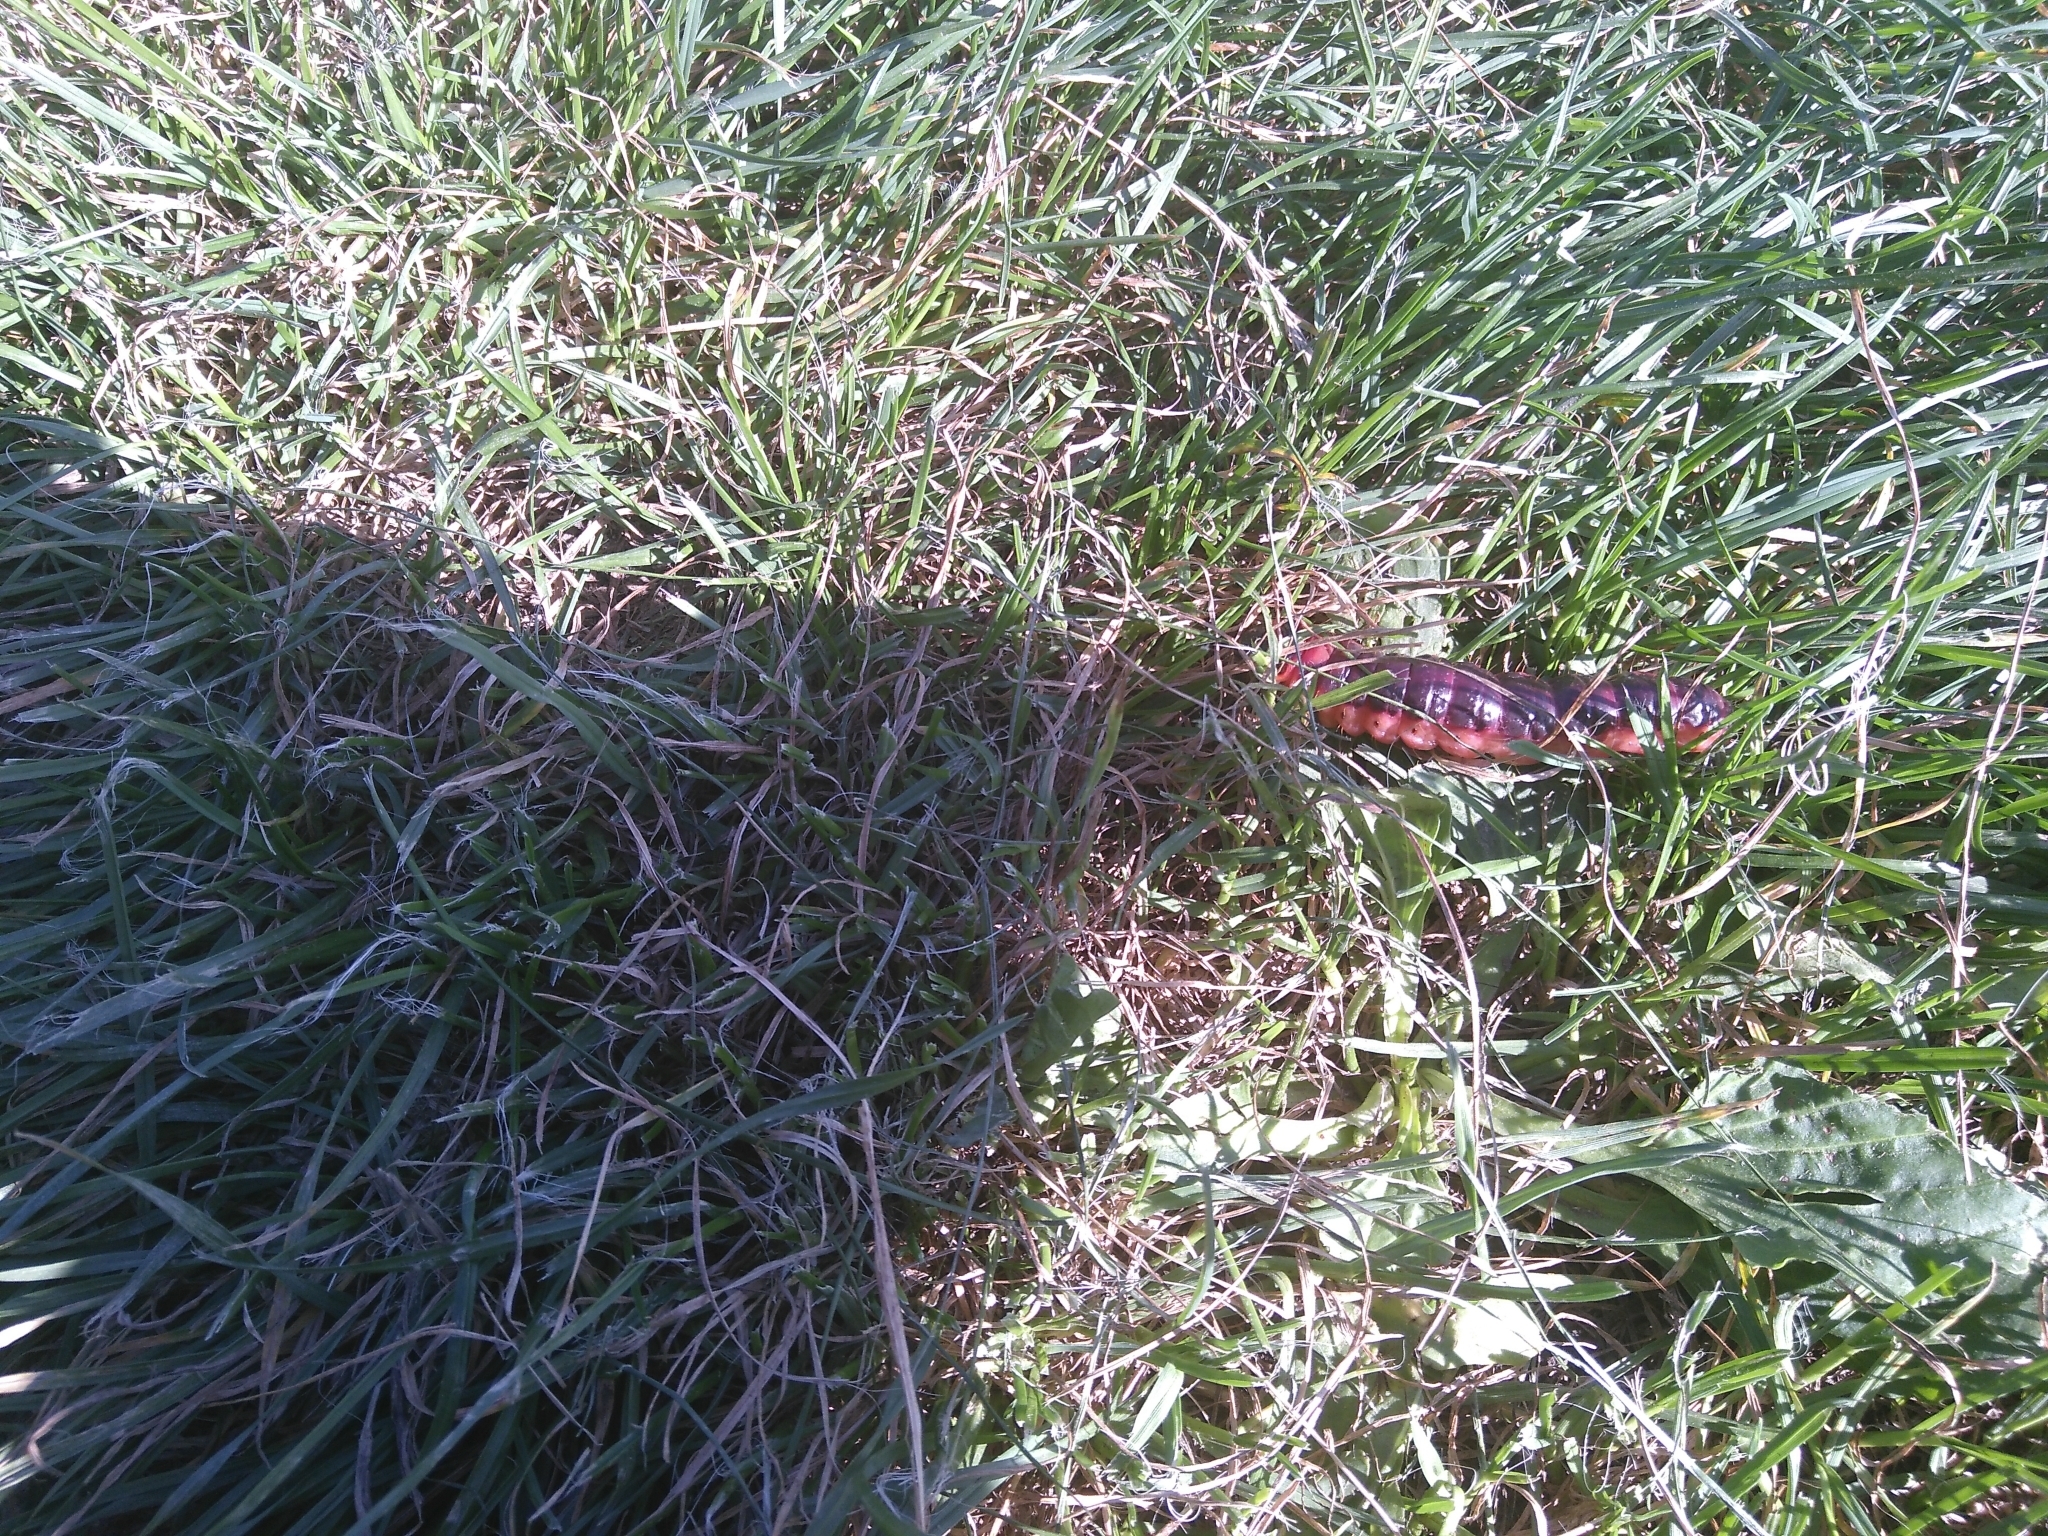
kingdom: Animalia
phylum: Arthropoda
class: Insecta
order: Lepidoptera
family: Cossidae
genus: Cossus
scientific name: Cossus cossus
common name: Goat moth
